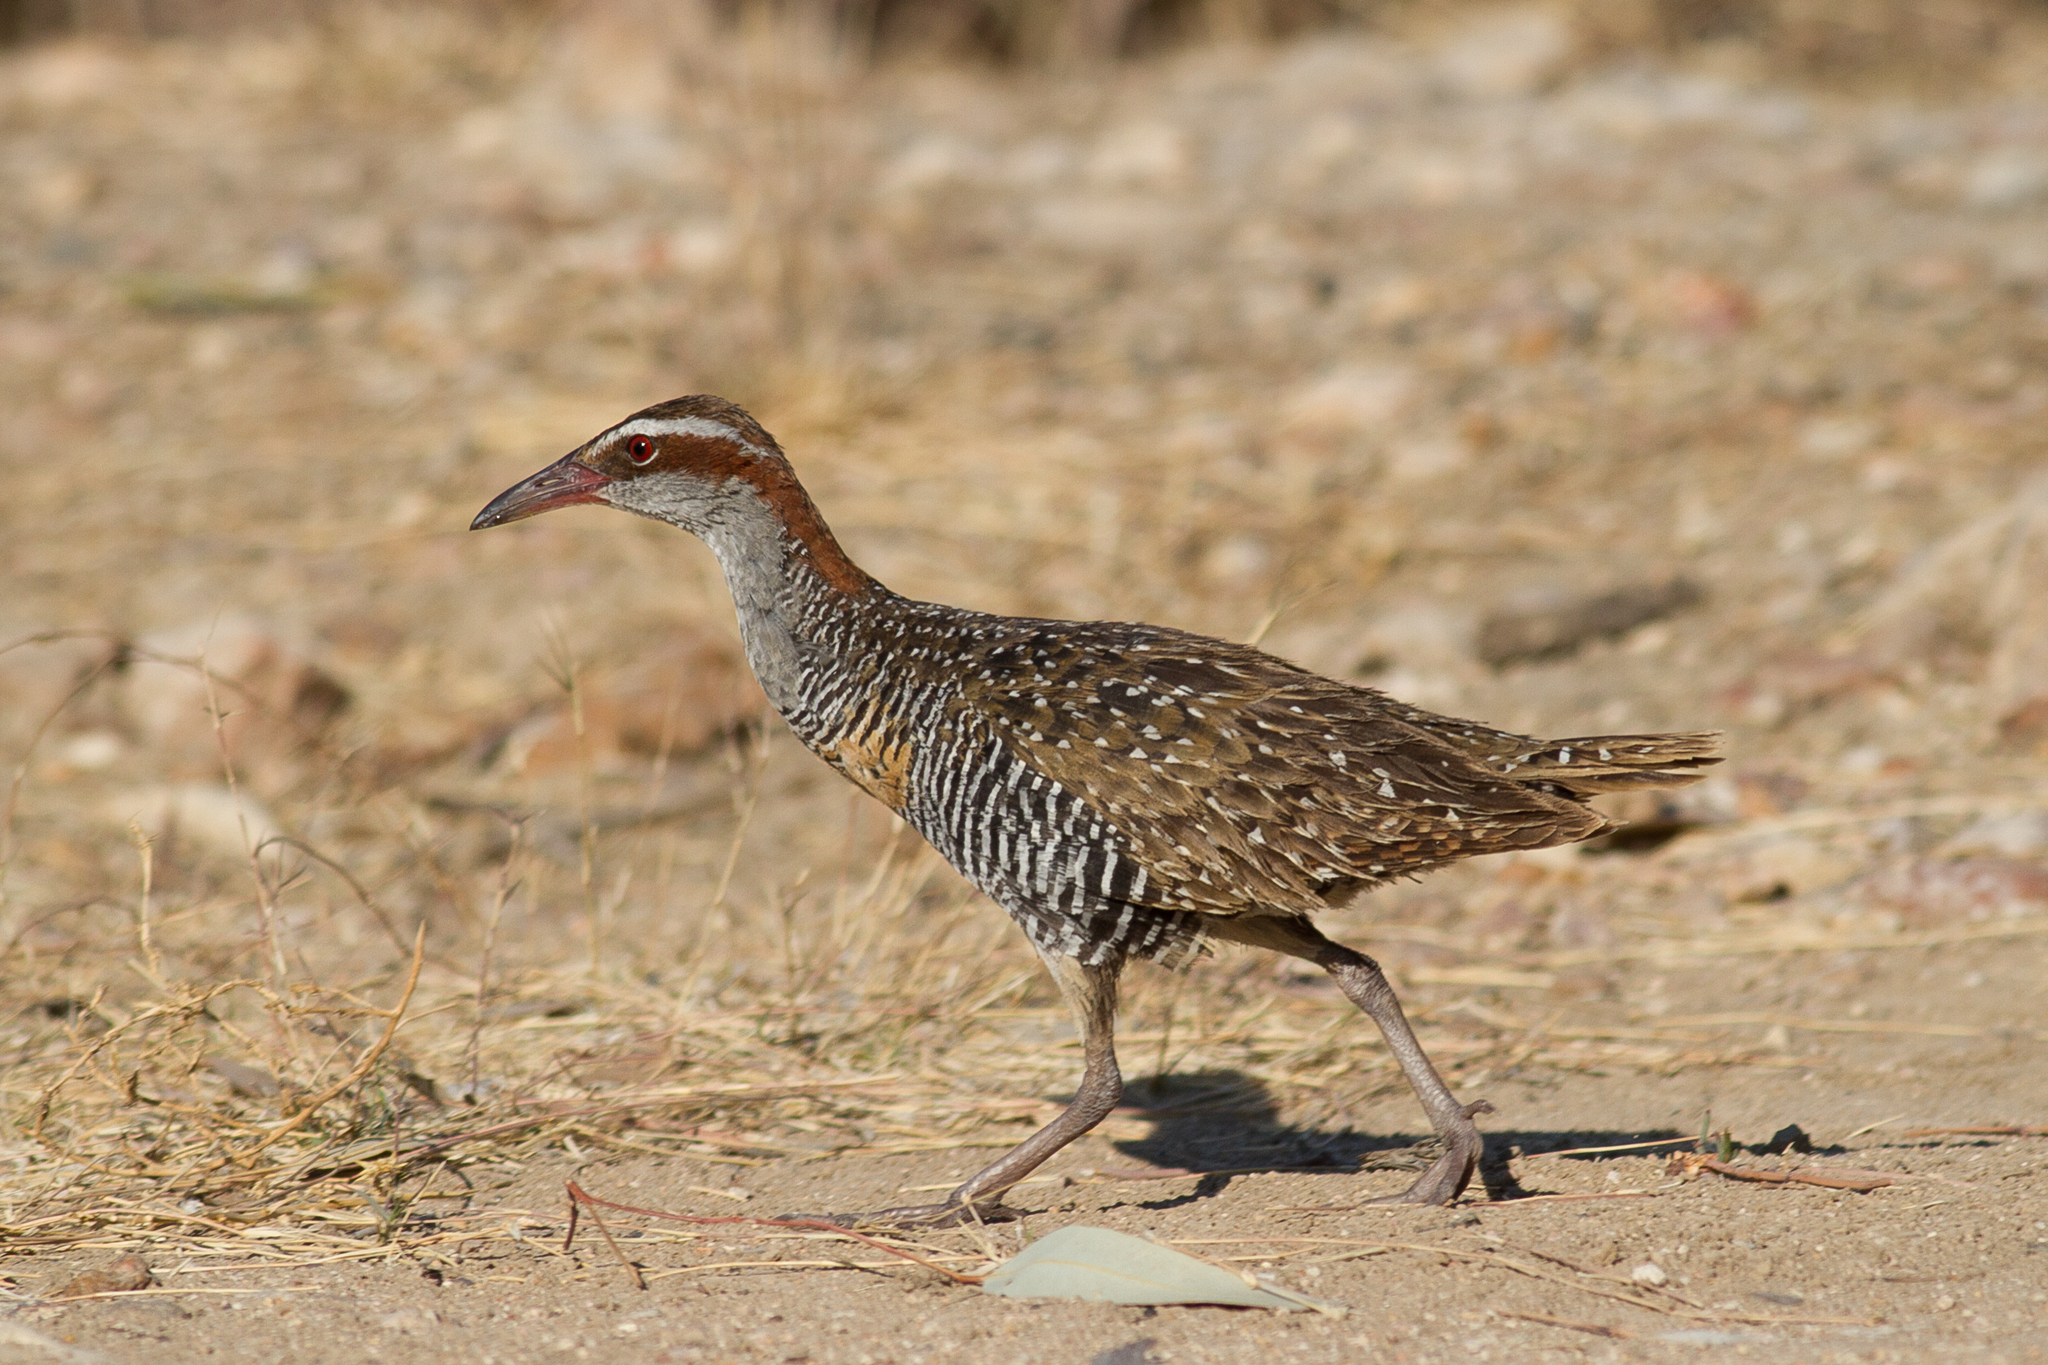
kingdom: Animalia
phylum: Chordata
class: Aves
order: Gruiformes
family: Rallidae
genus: Gallirallus
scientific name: Gallirallus philippensis
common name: Buff-banded rail
